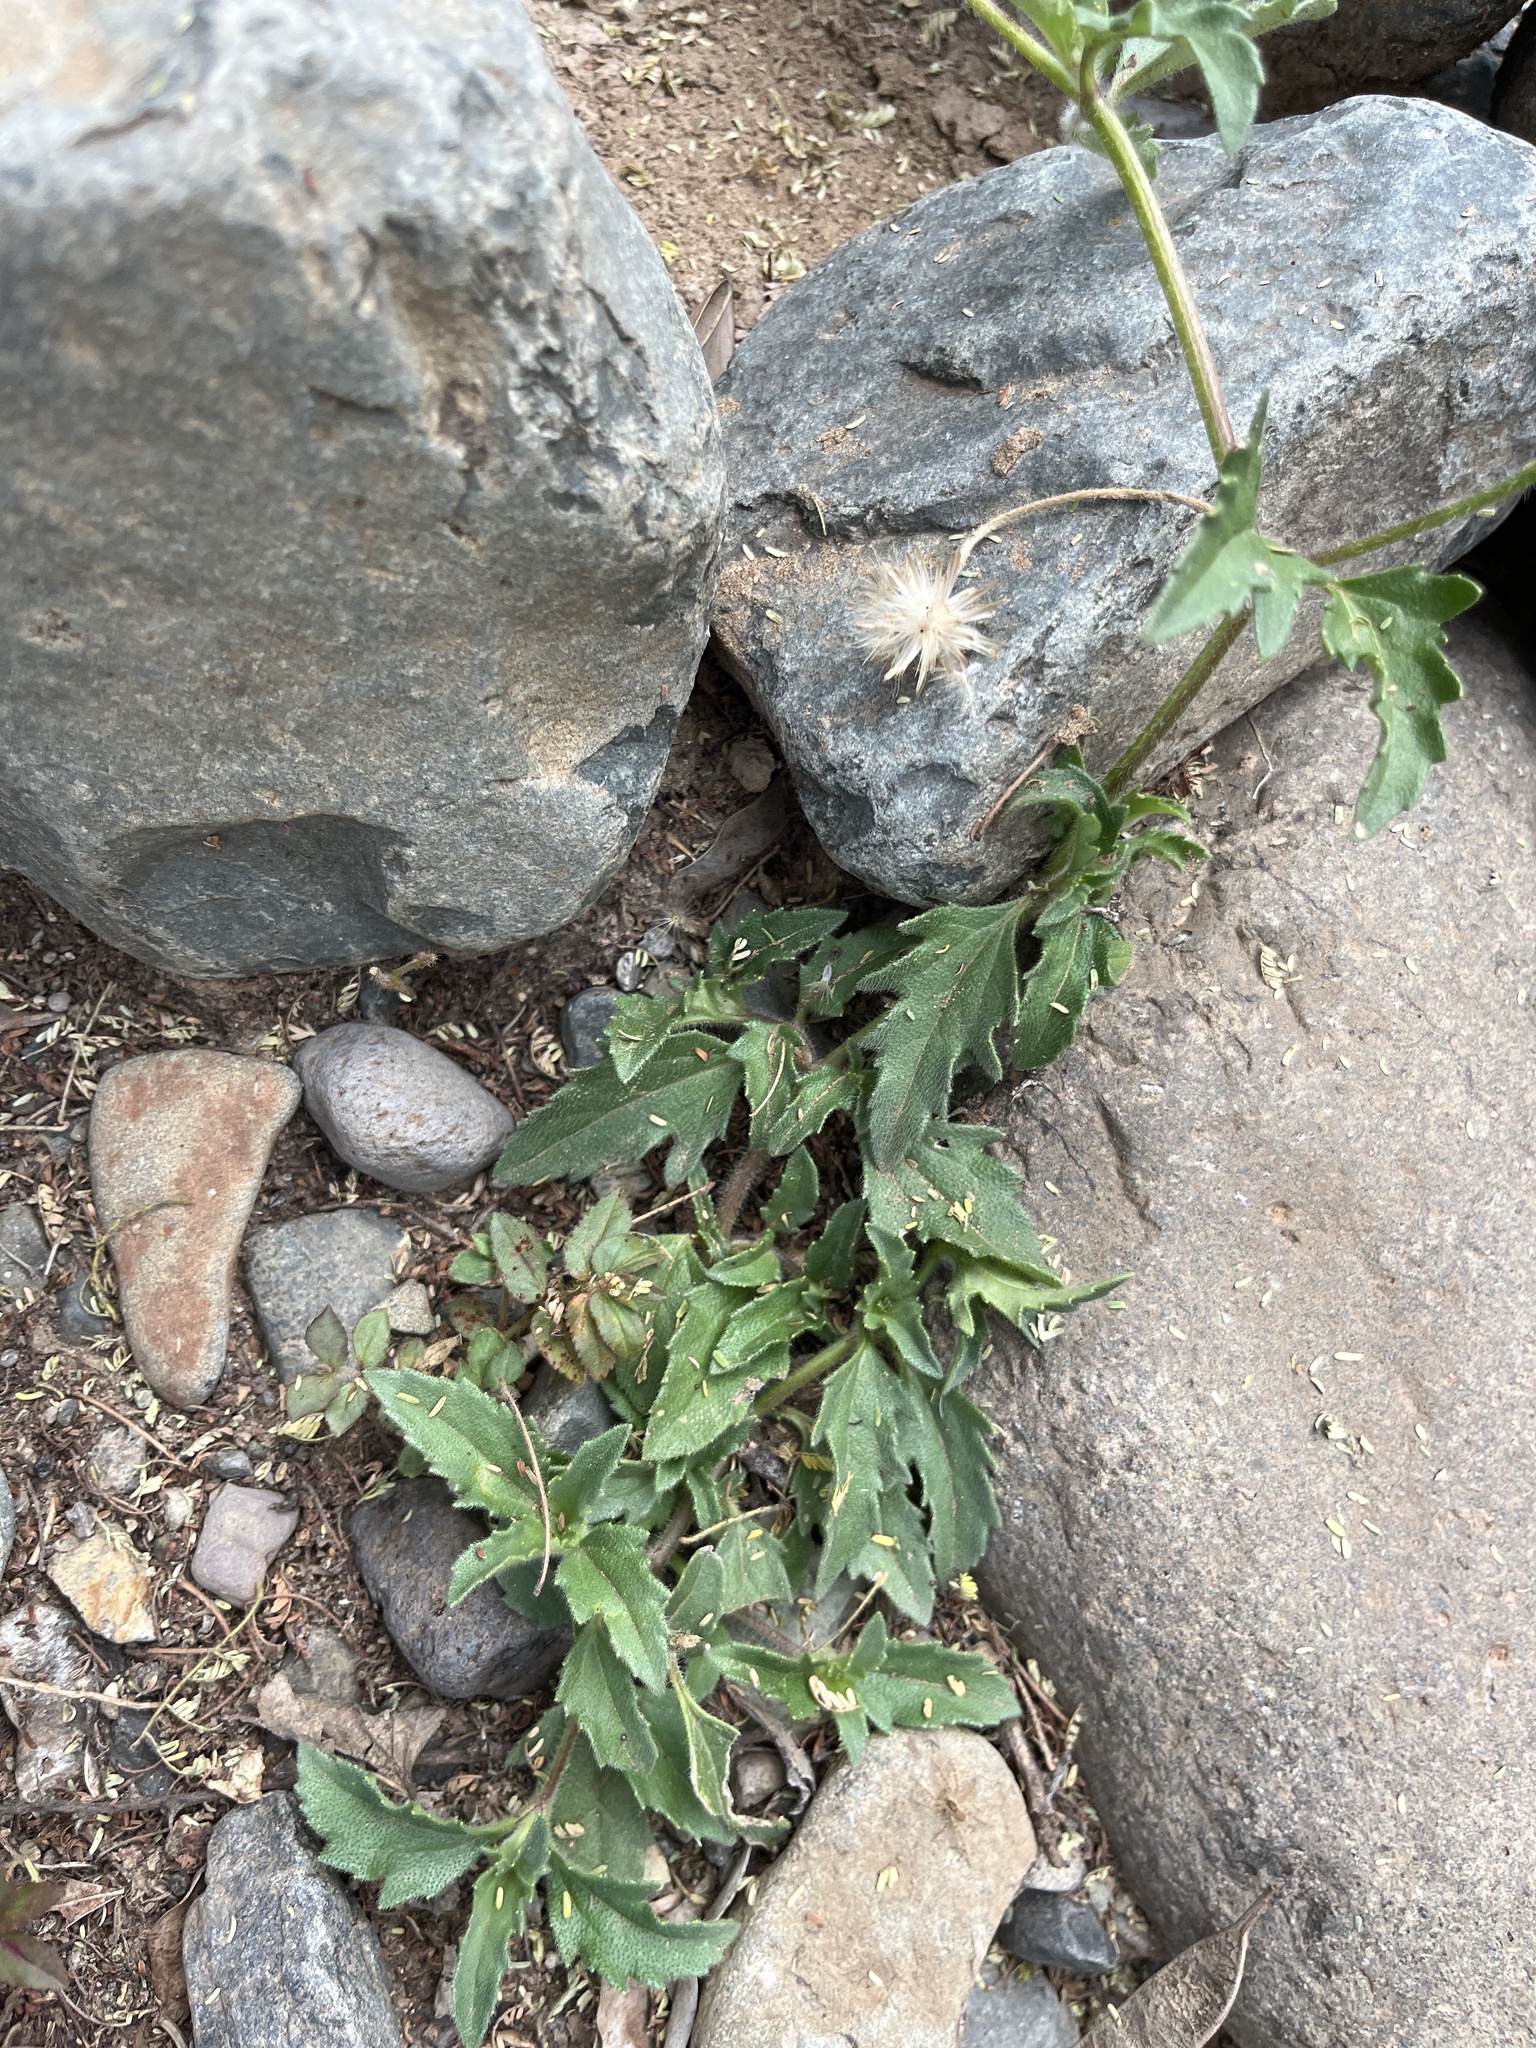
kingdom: Plantae
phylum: Tracheophyta
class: Magnoliopsida
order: Asterales
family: Asteraceae
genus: Tridax
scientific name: Tridax procumbens
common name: Coatbuttons
